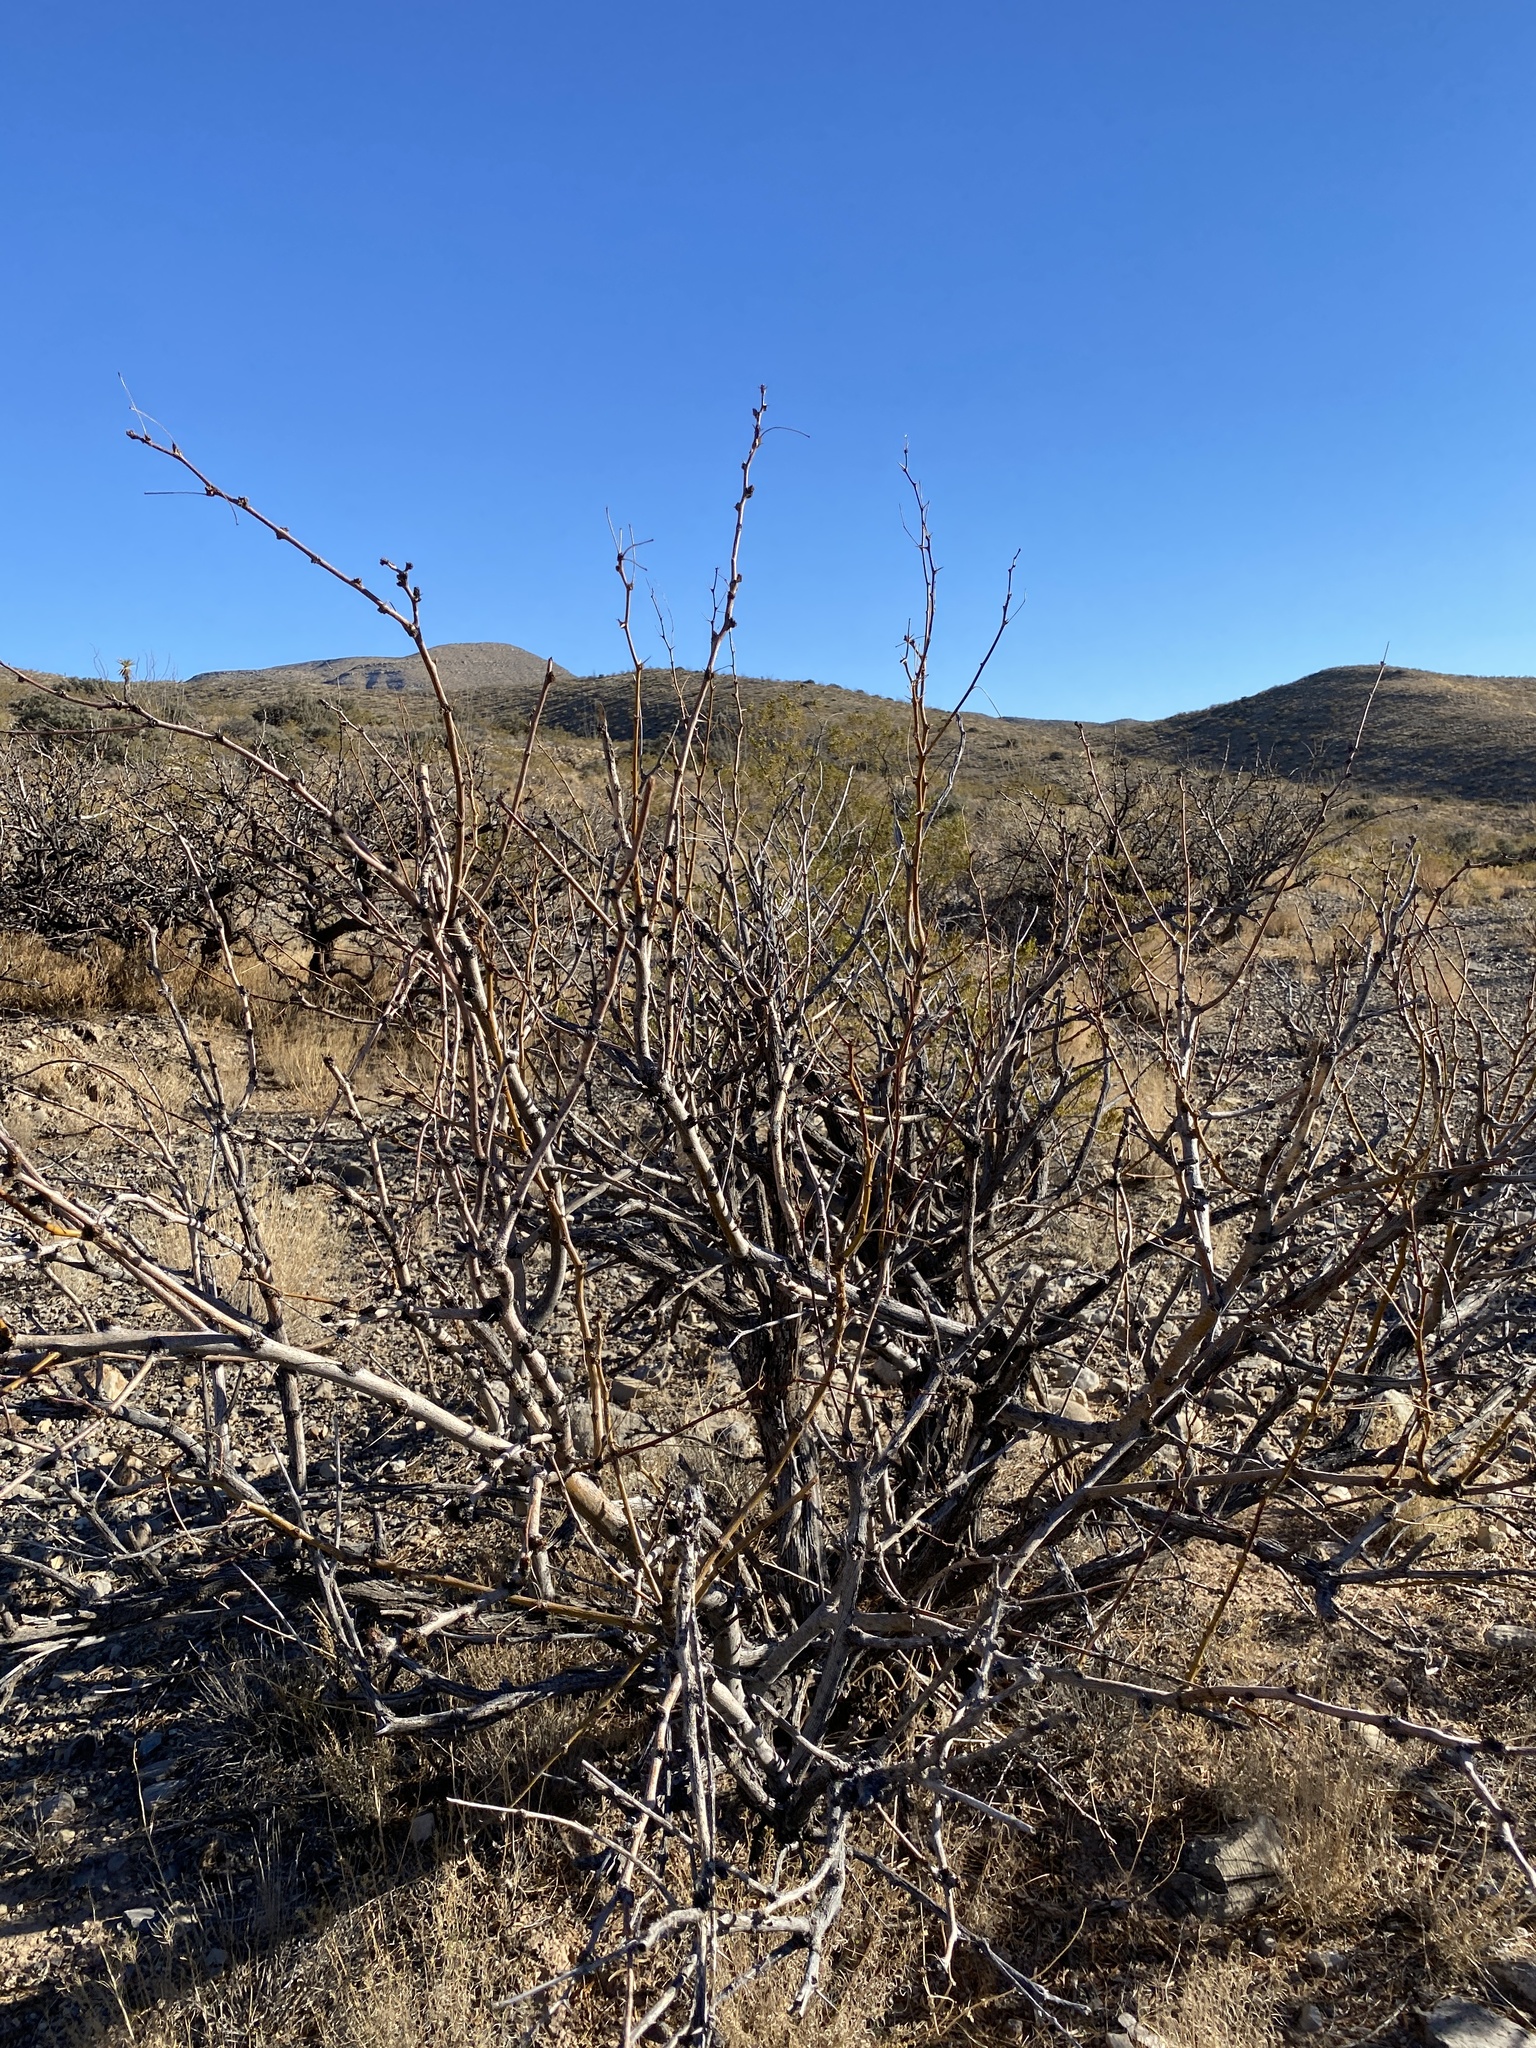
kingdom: Plantae
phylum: Tracheophyta
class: Magnoliopsida
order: Fabales
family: Fabaceae
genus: Prosopis
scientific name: Prosopis glandulosa
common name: Honey mesquite
